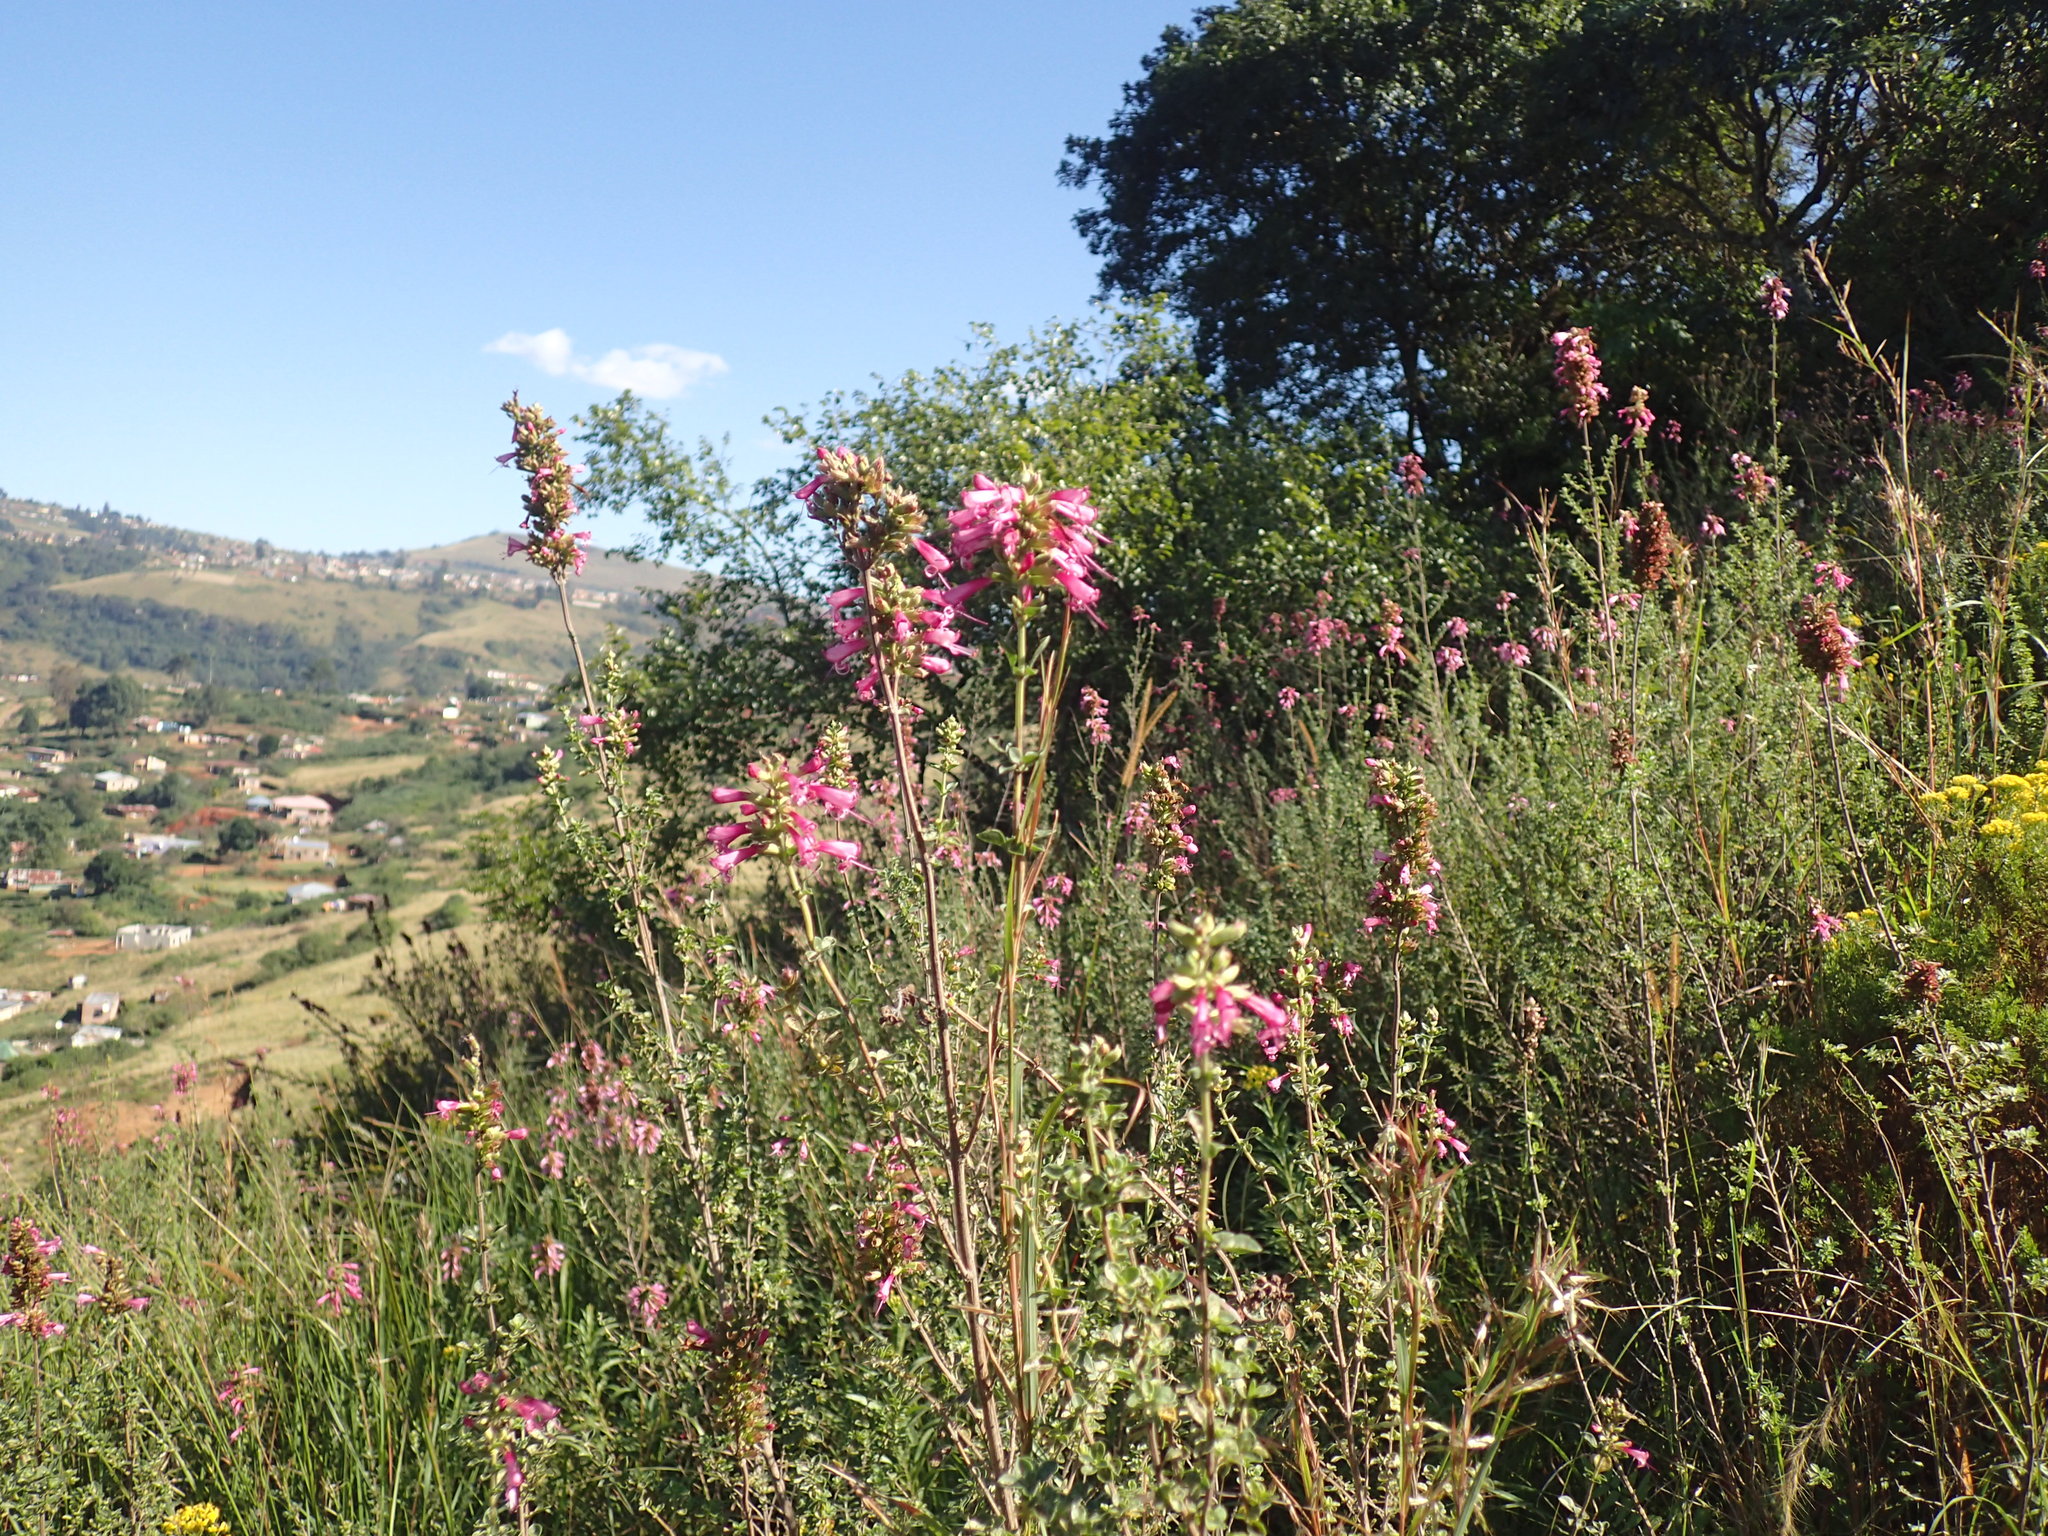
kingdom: Plantae
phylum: Tracheophyta
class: Magnoliopsida
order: Lamiales
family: Lamiaceae
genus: Syncolostemon
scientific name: Syncolostemon densiflorus
